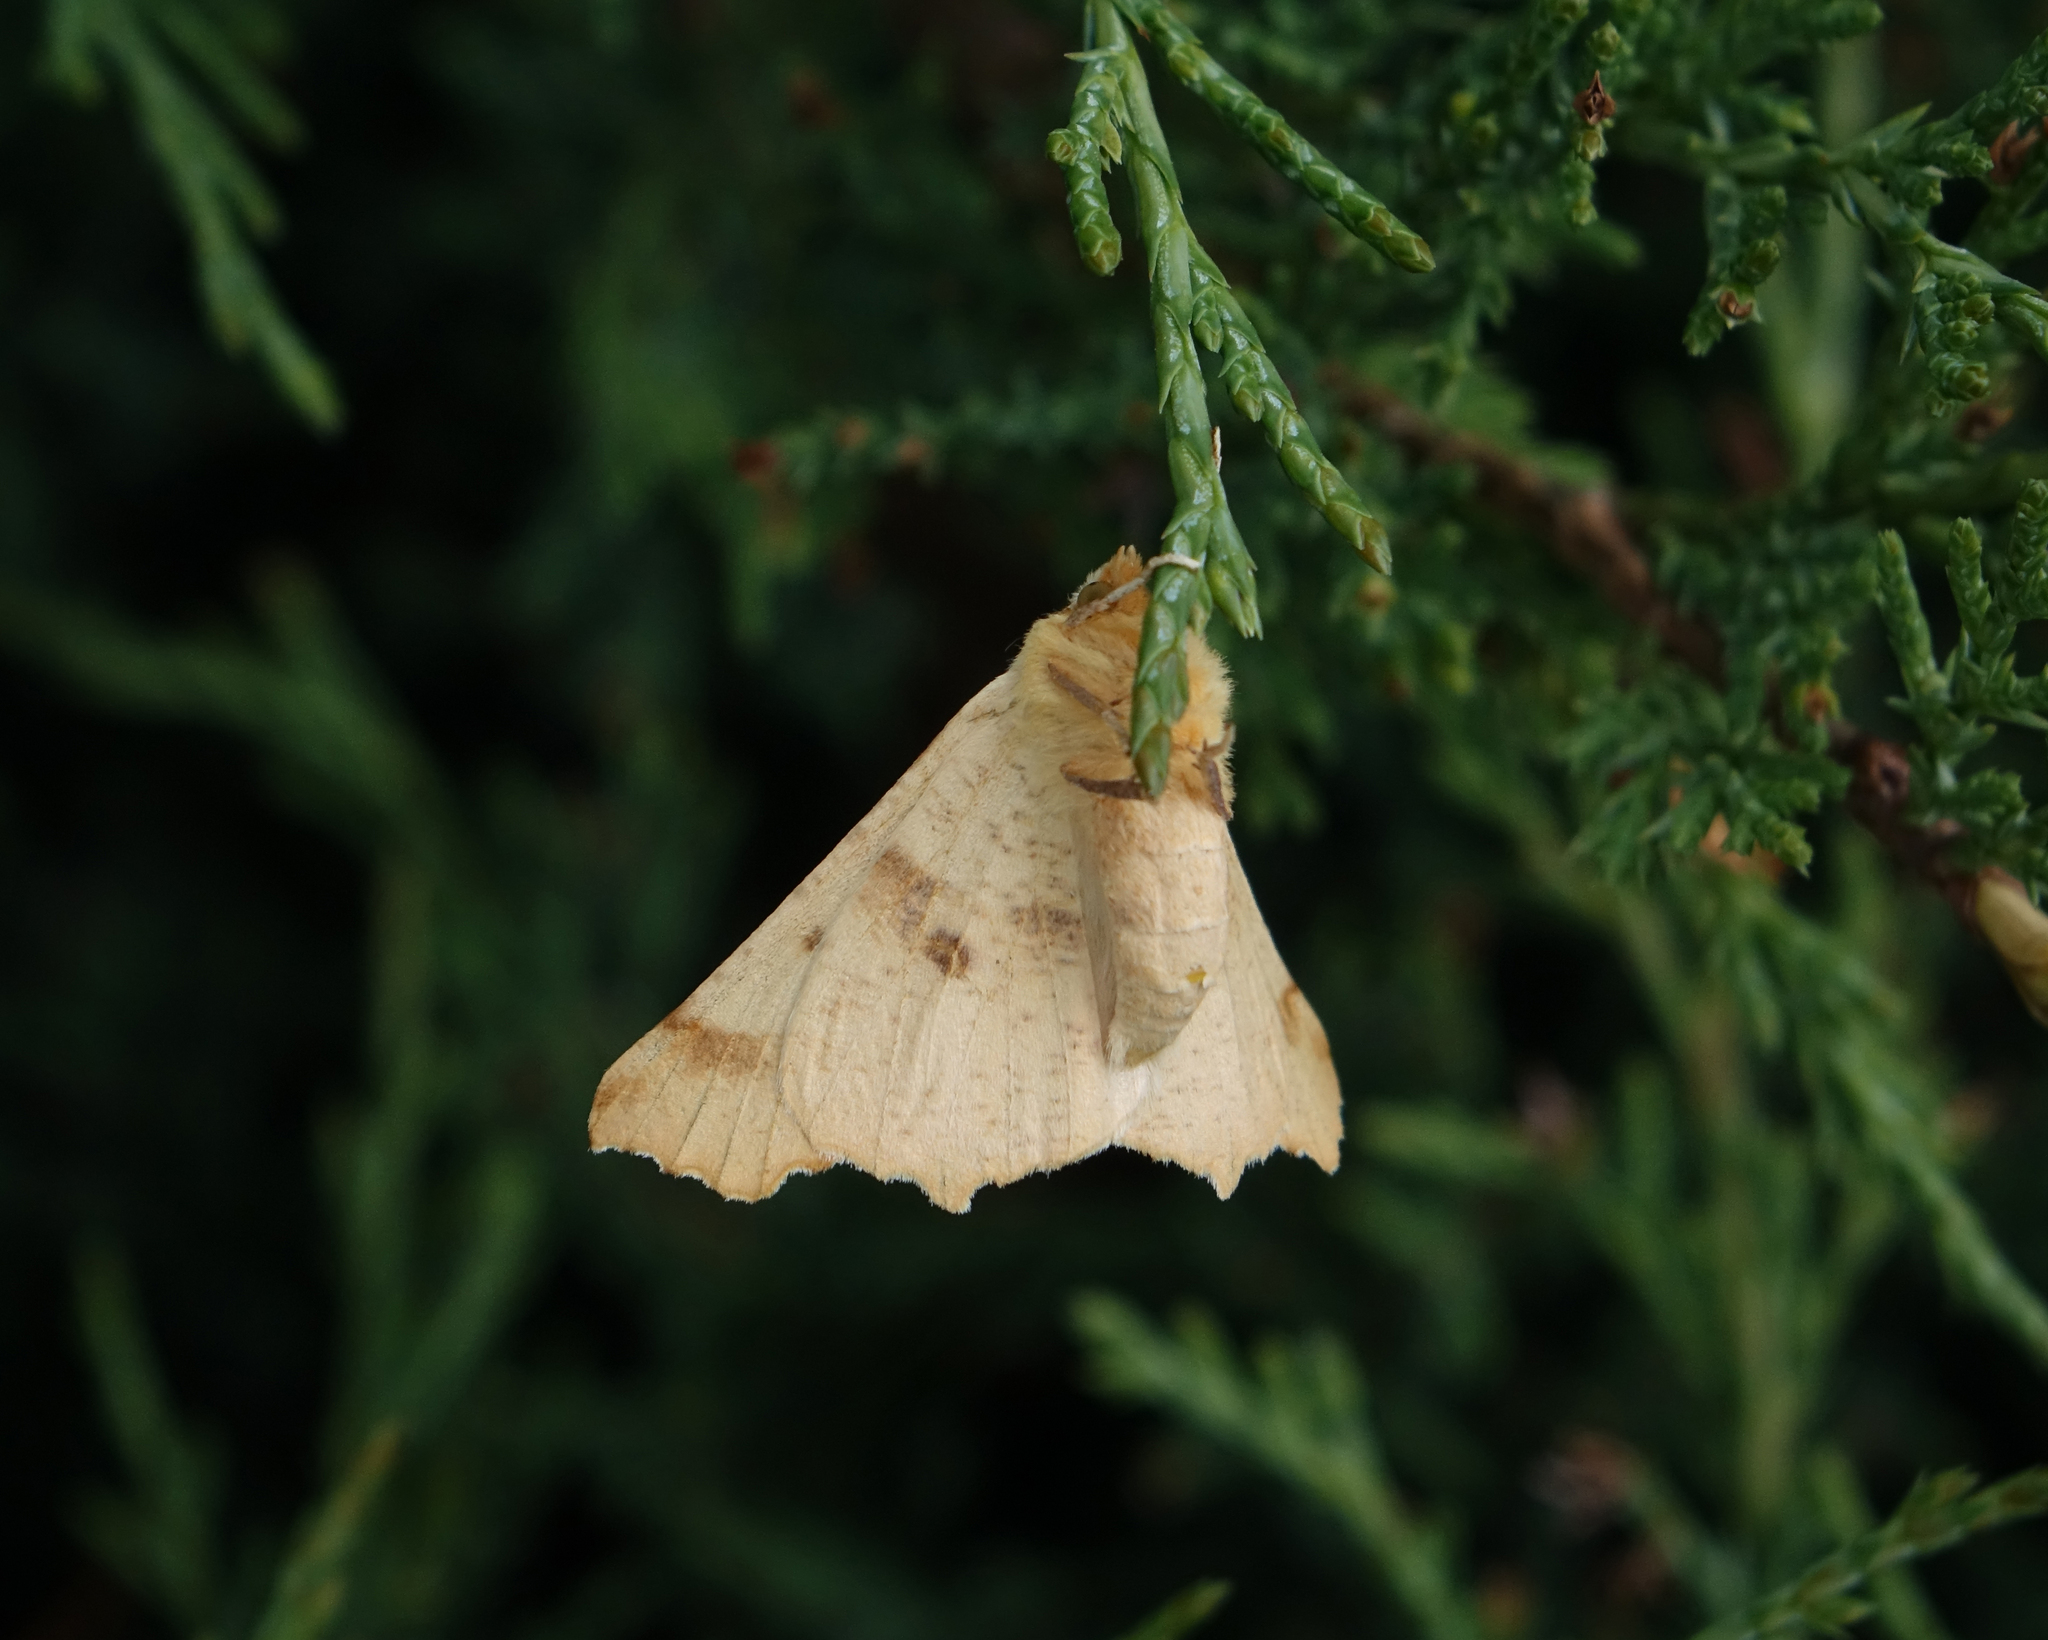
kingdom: Animalia
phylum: Arthropoda
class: Insecta
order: Lepidoptera
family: Geometridae
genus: Ennomos
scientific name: Ennomos fuscantaria
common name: Dusky thorn
